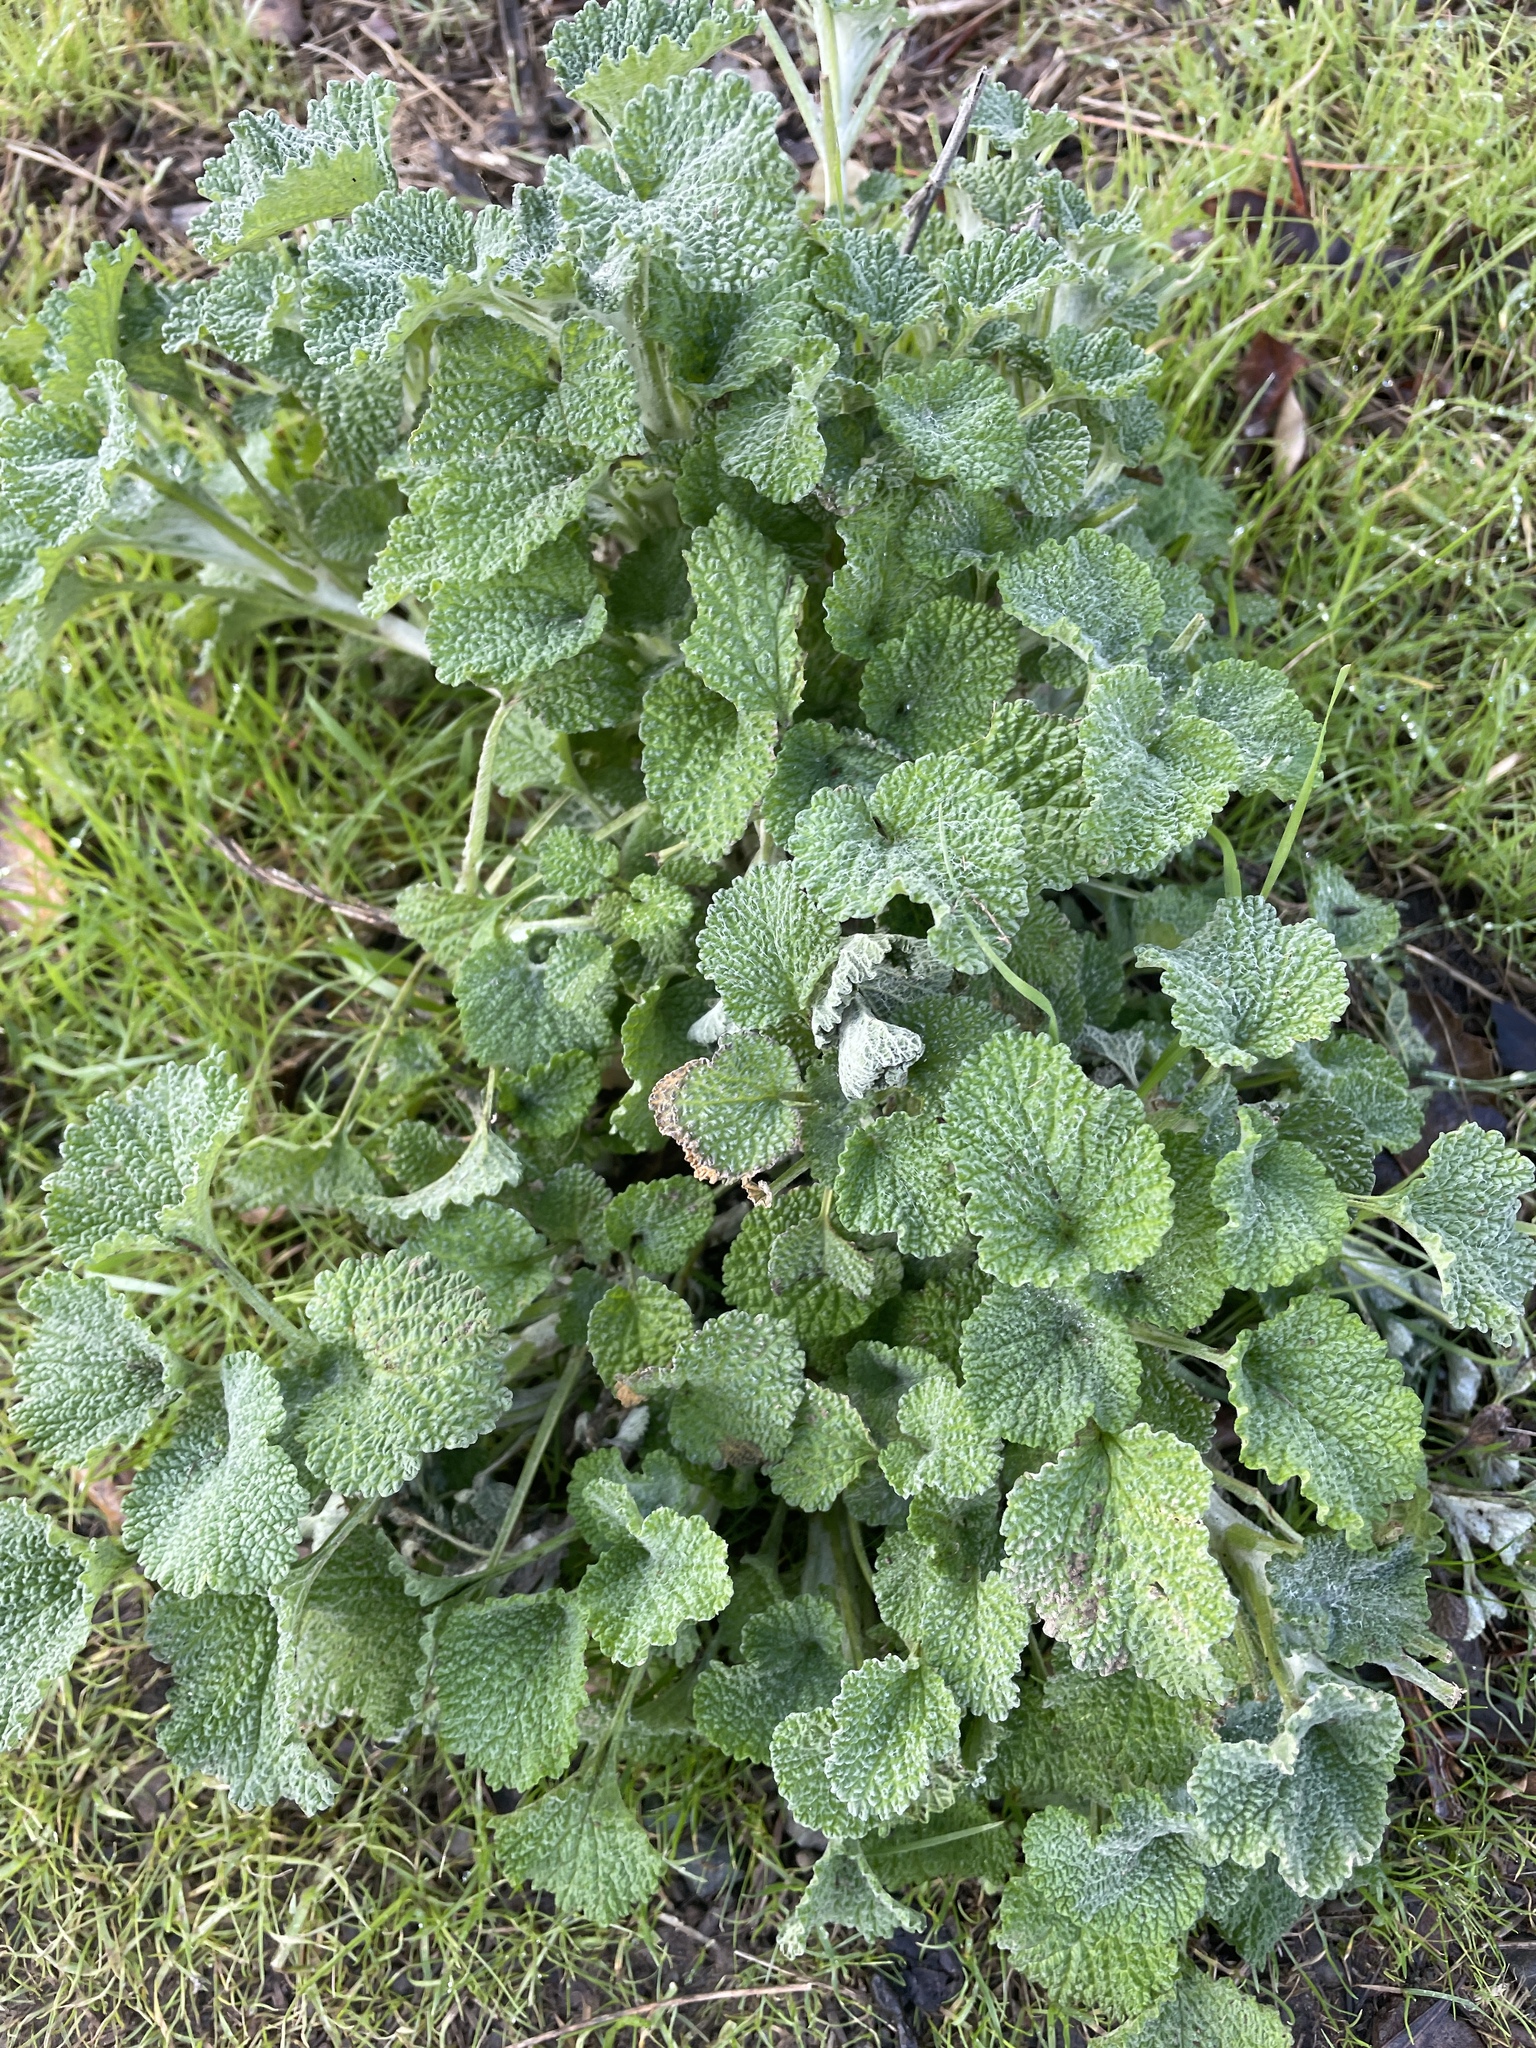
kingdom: Plantae
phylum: Tracheophyta
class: Magnoliopsida
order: Lamiales
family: Lamiaceae
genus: Marrubium
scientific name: Marrubium vulgare
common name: Horehound
